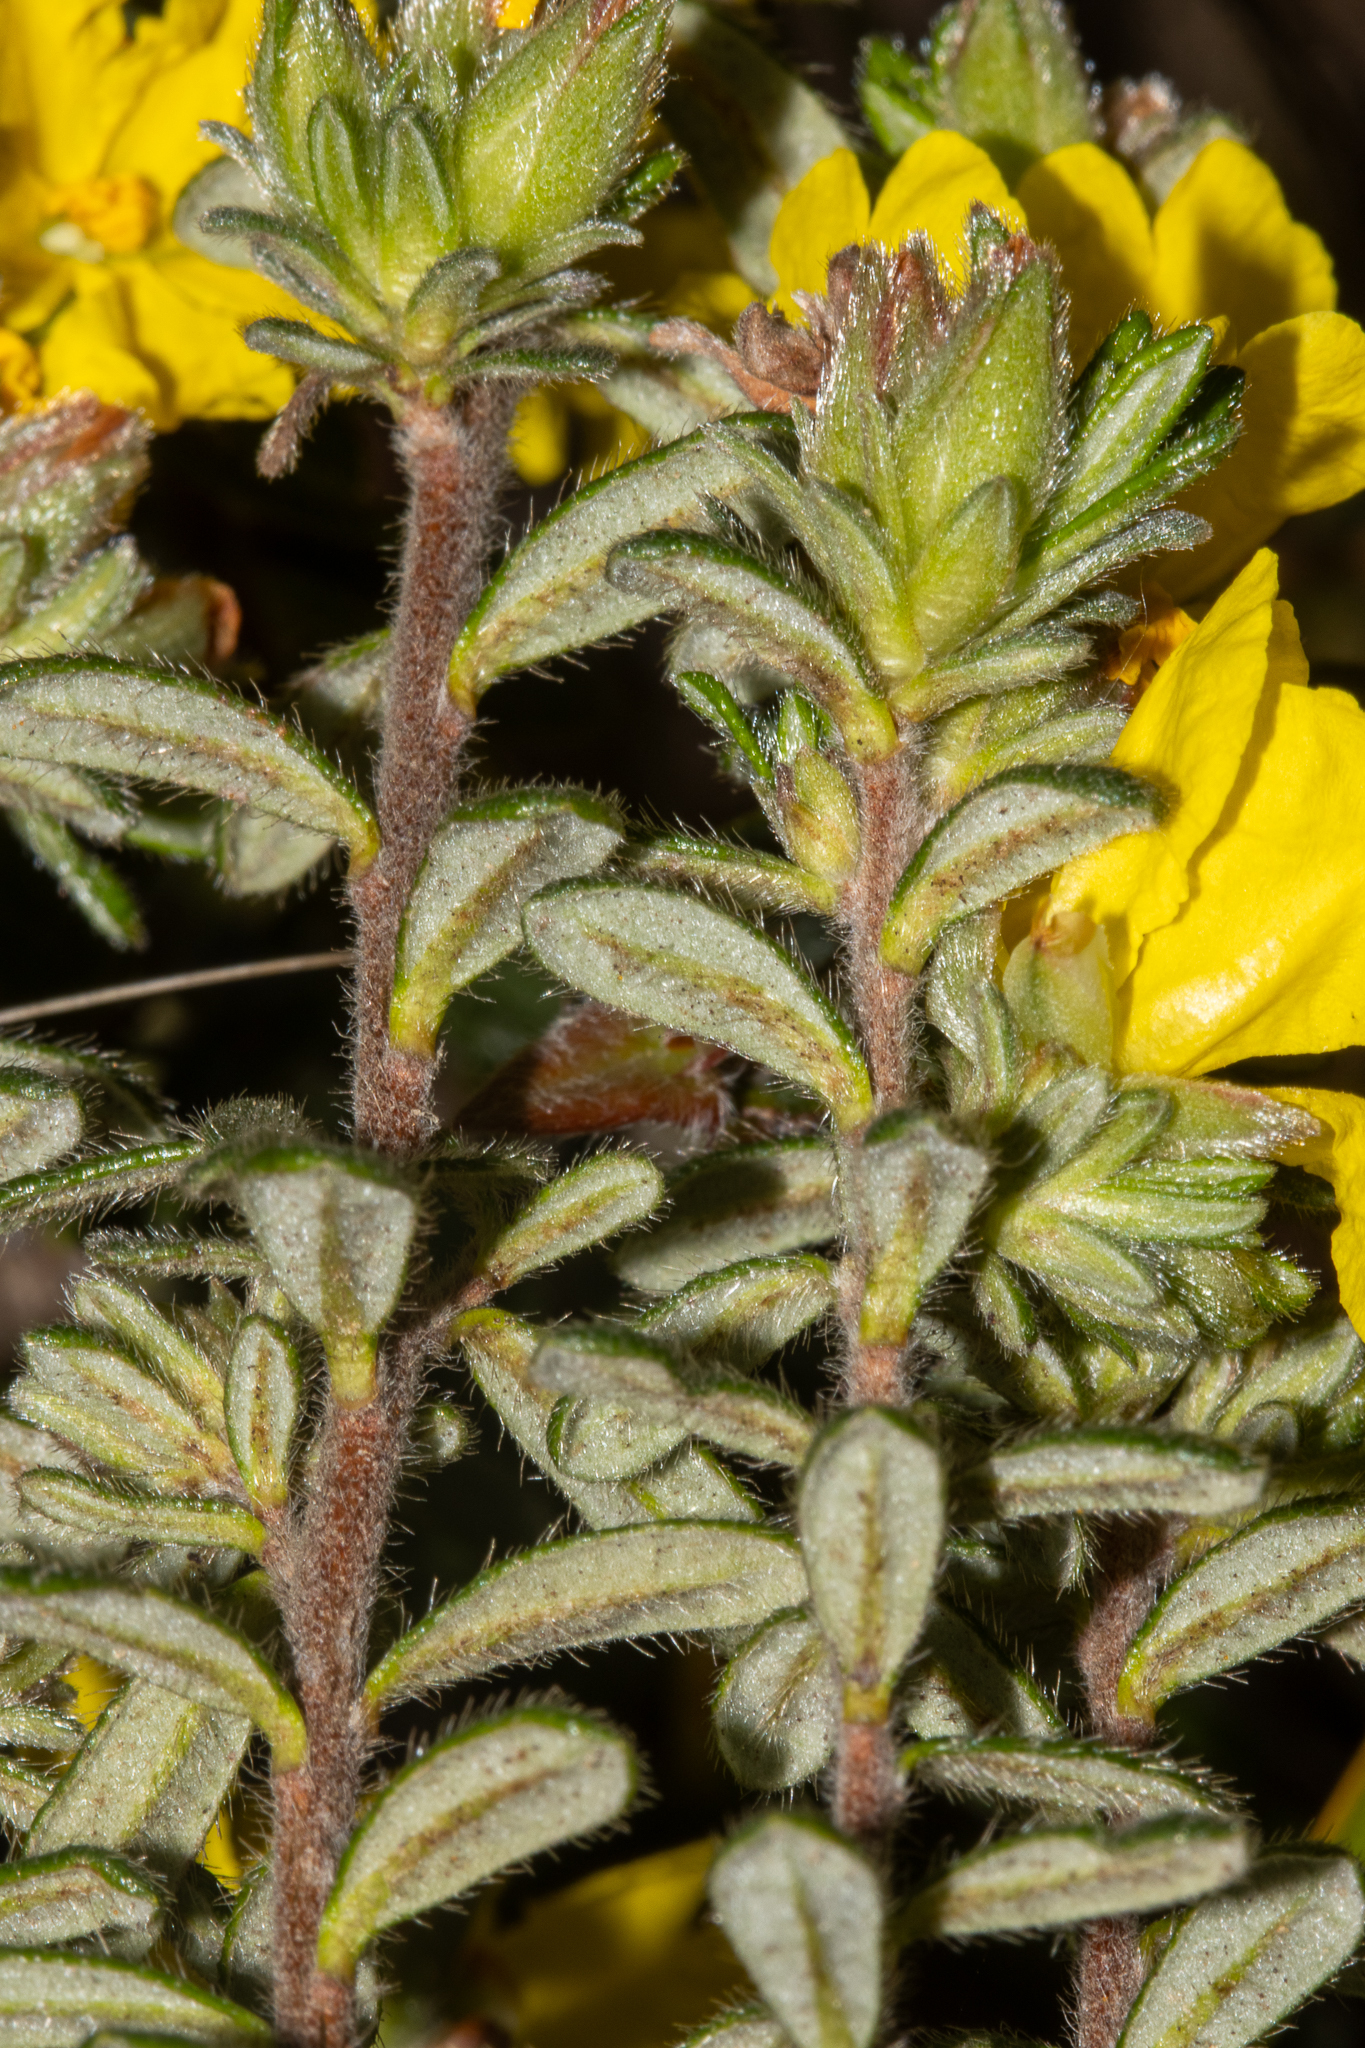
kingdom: Plantae
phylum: Tracheophyta
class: Magnoliopsida
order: Dilleniales
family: Dilleniaceae
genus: Hibbertia
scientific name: Hibbertia sericea
